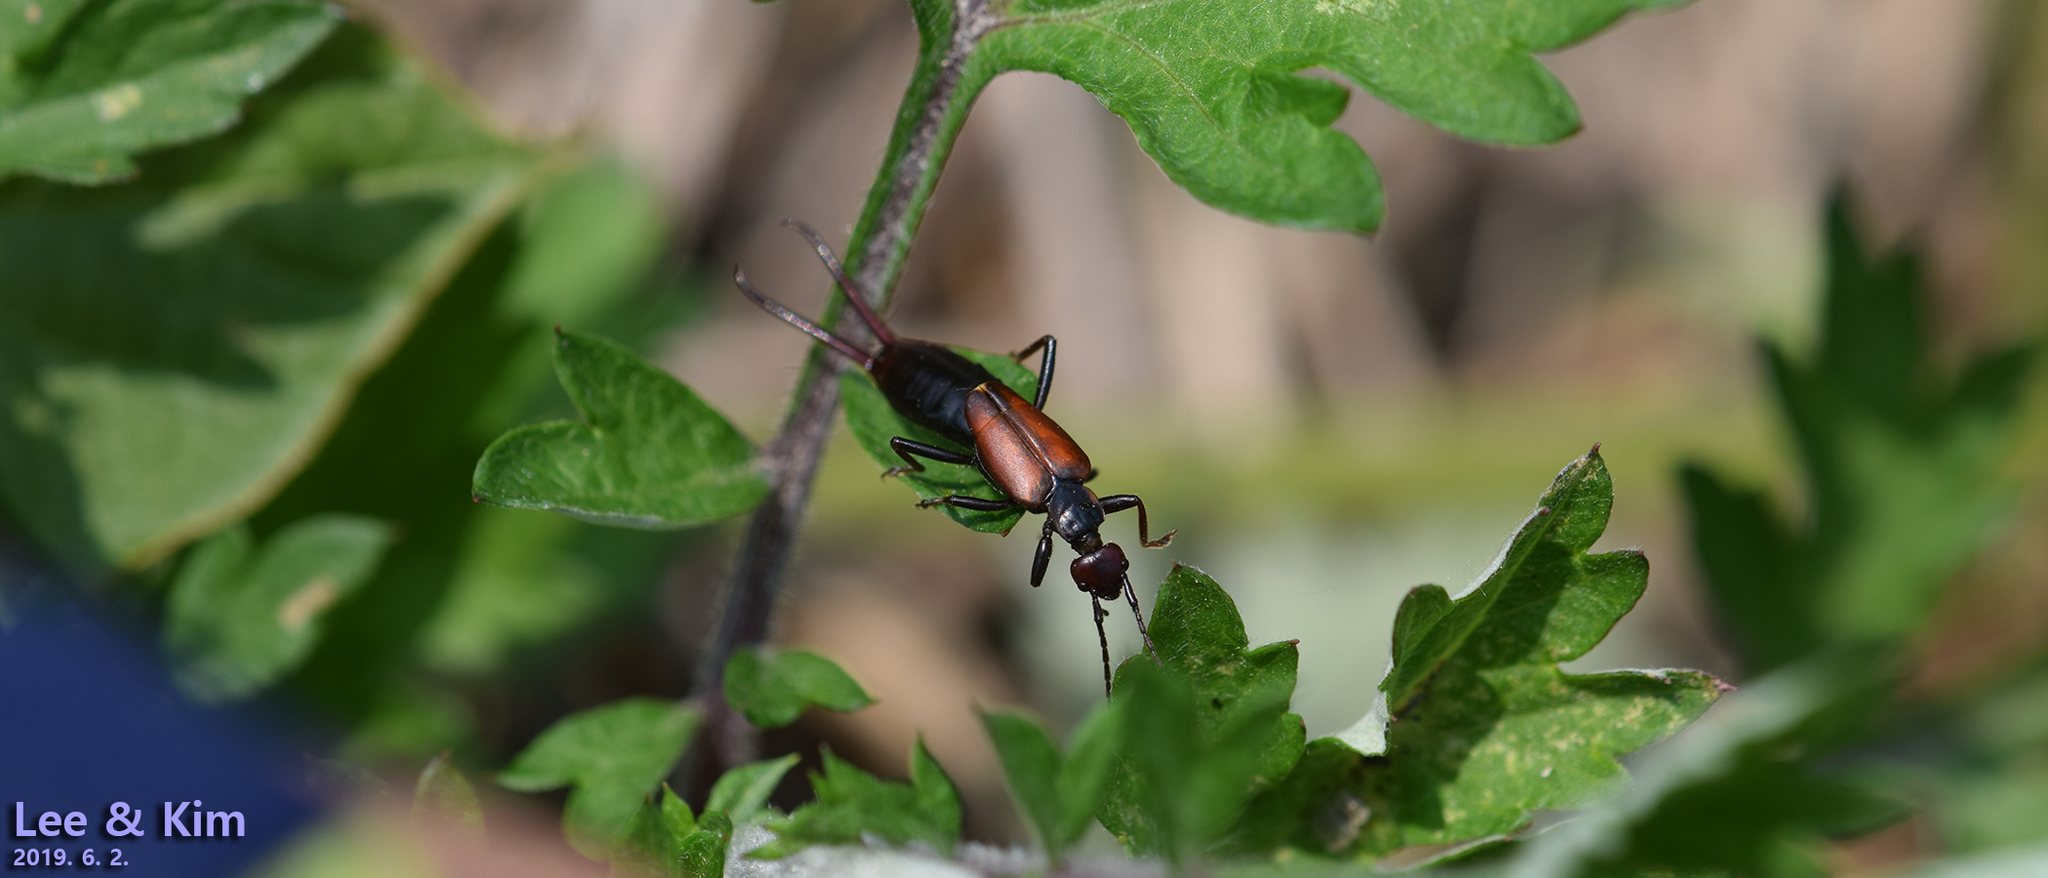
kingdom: Animalia
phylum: Arthropoda
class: Insecta
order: Dermaptera
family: Forficulidae
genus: Timomenus
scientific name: Timomenus komarovi
